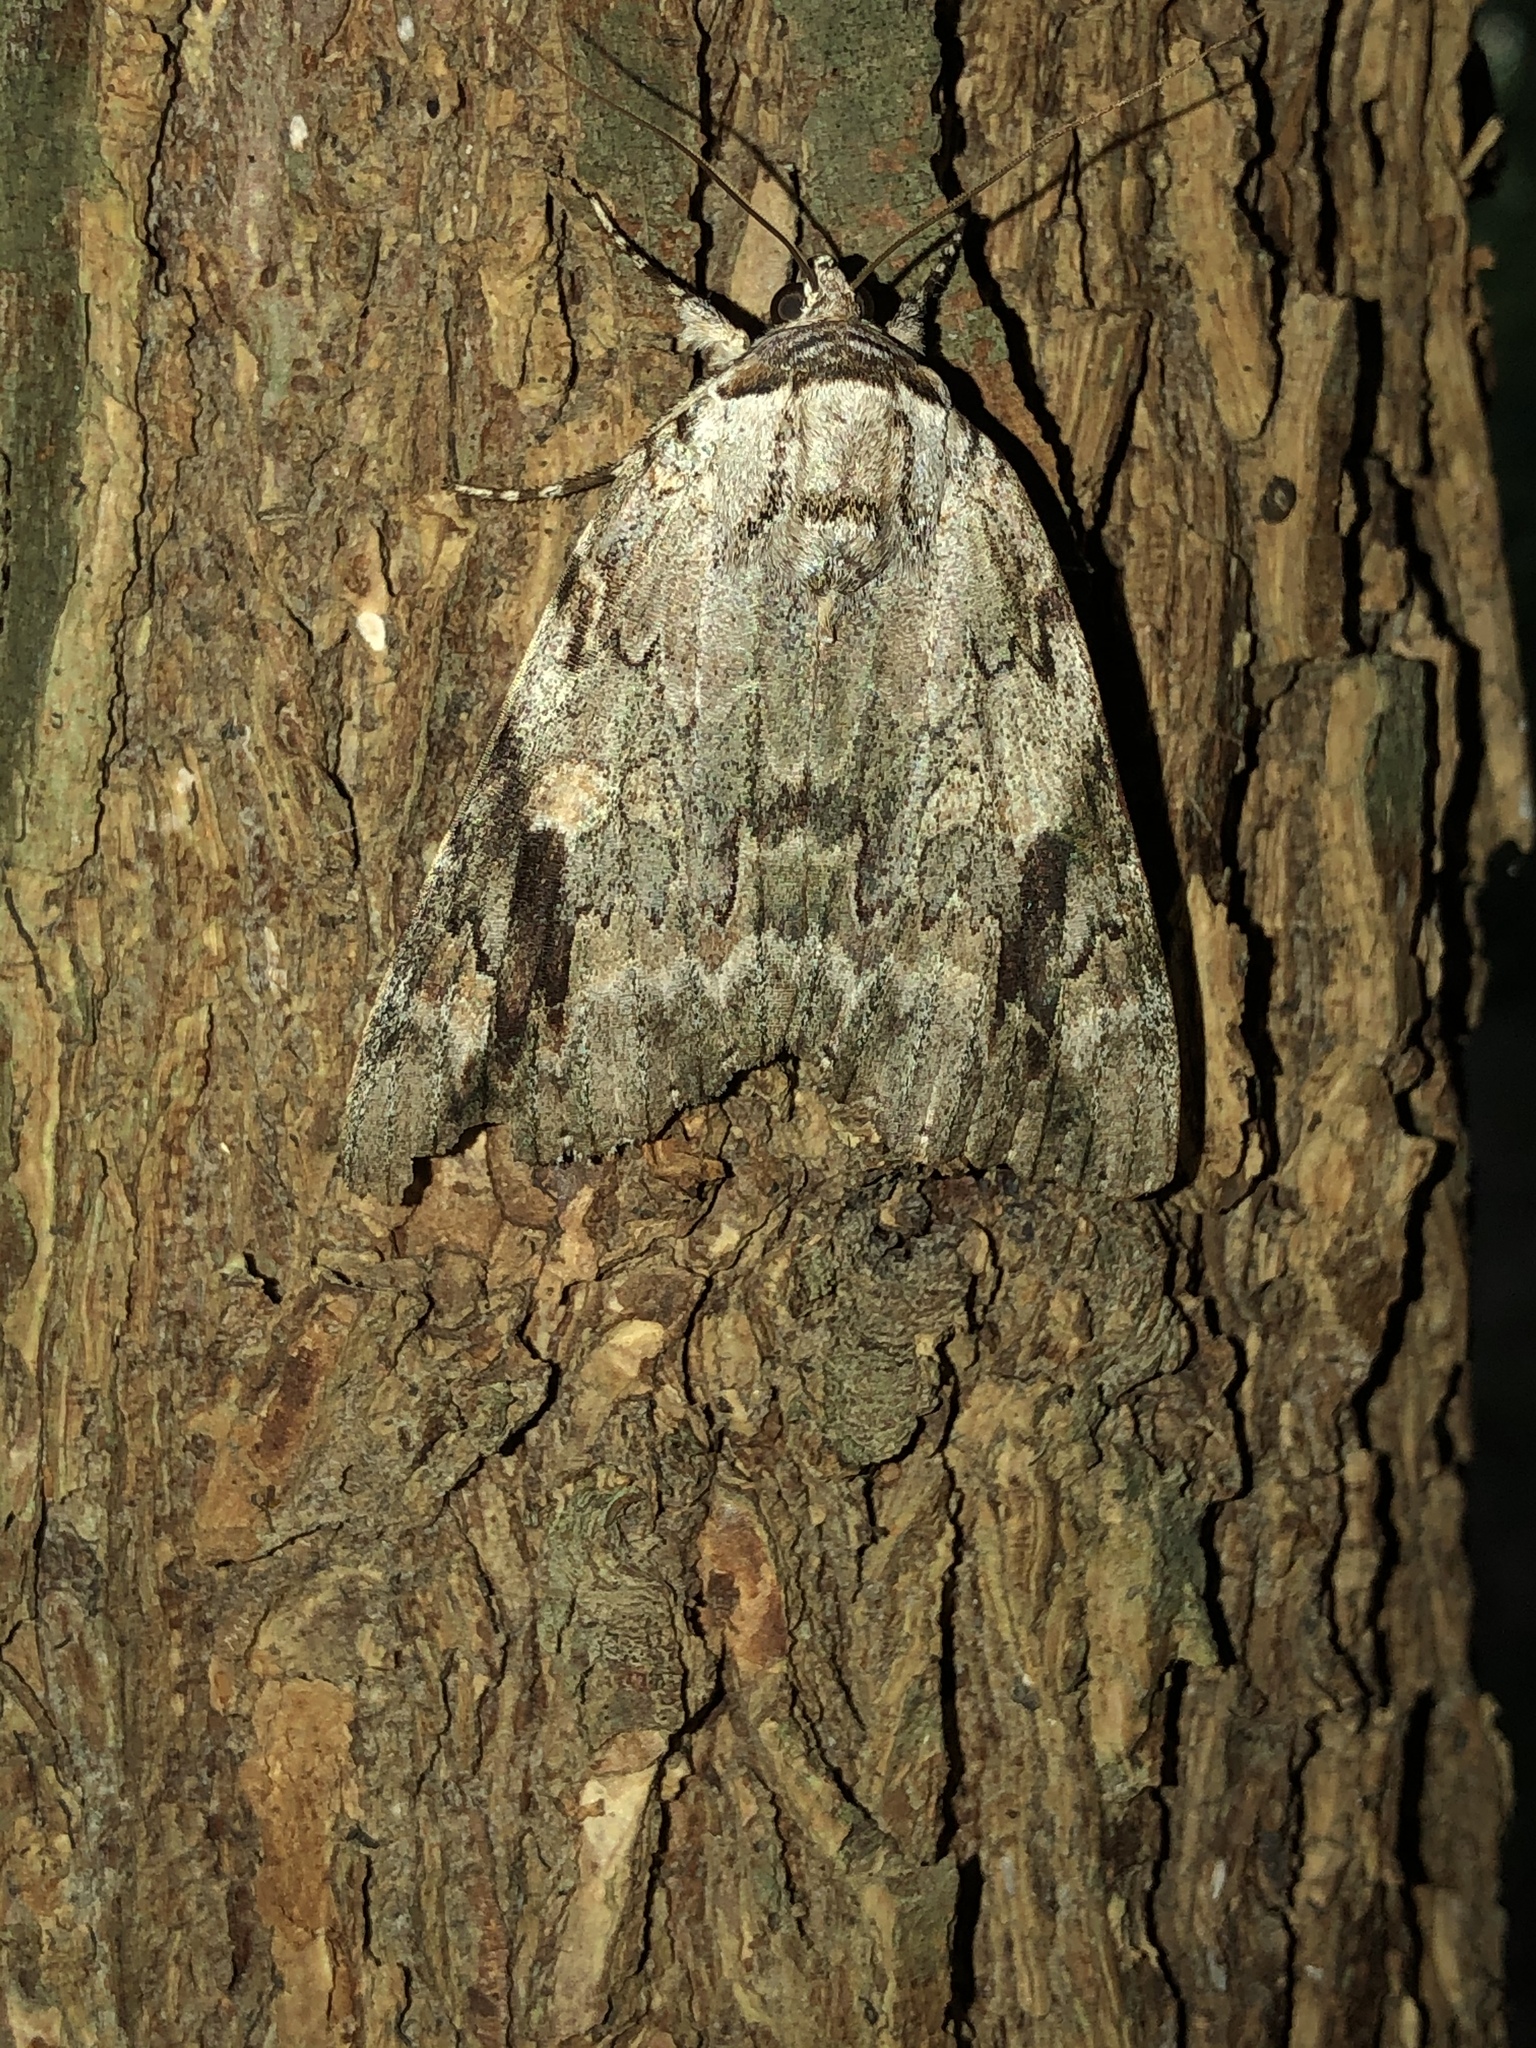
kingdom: Animalia
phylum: Arthropoda
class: Insecta
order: Lepidoptera
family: Erebidae
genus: Catocala
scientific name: Catocala maestosa
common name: Sad underwing
